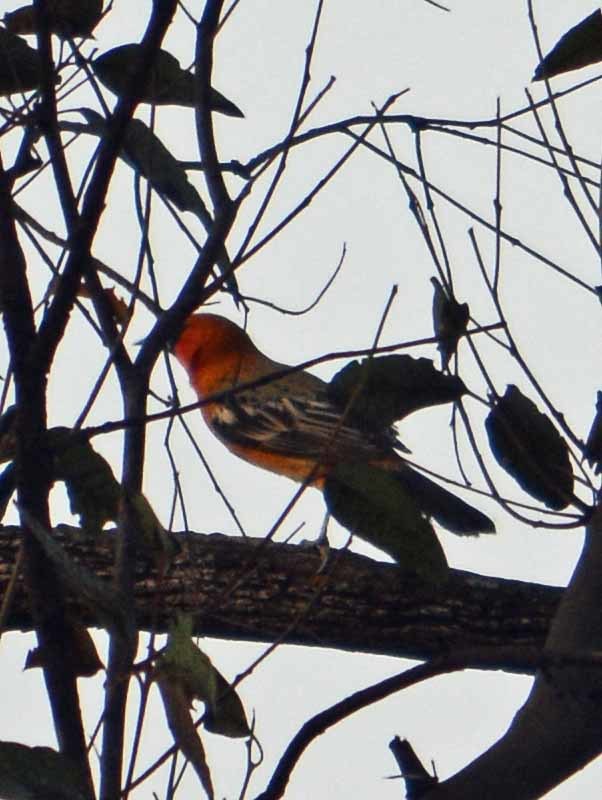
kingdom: Animalia
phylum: Chordata
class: Aves
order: Passeriformes
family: Icteridae
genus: Icterus
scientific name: Icterus pustulatus
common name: Streak-backed oriole
